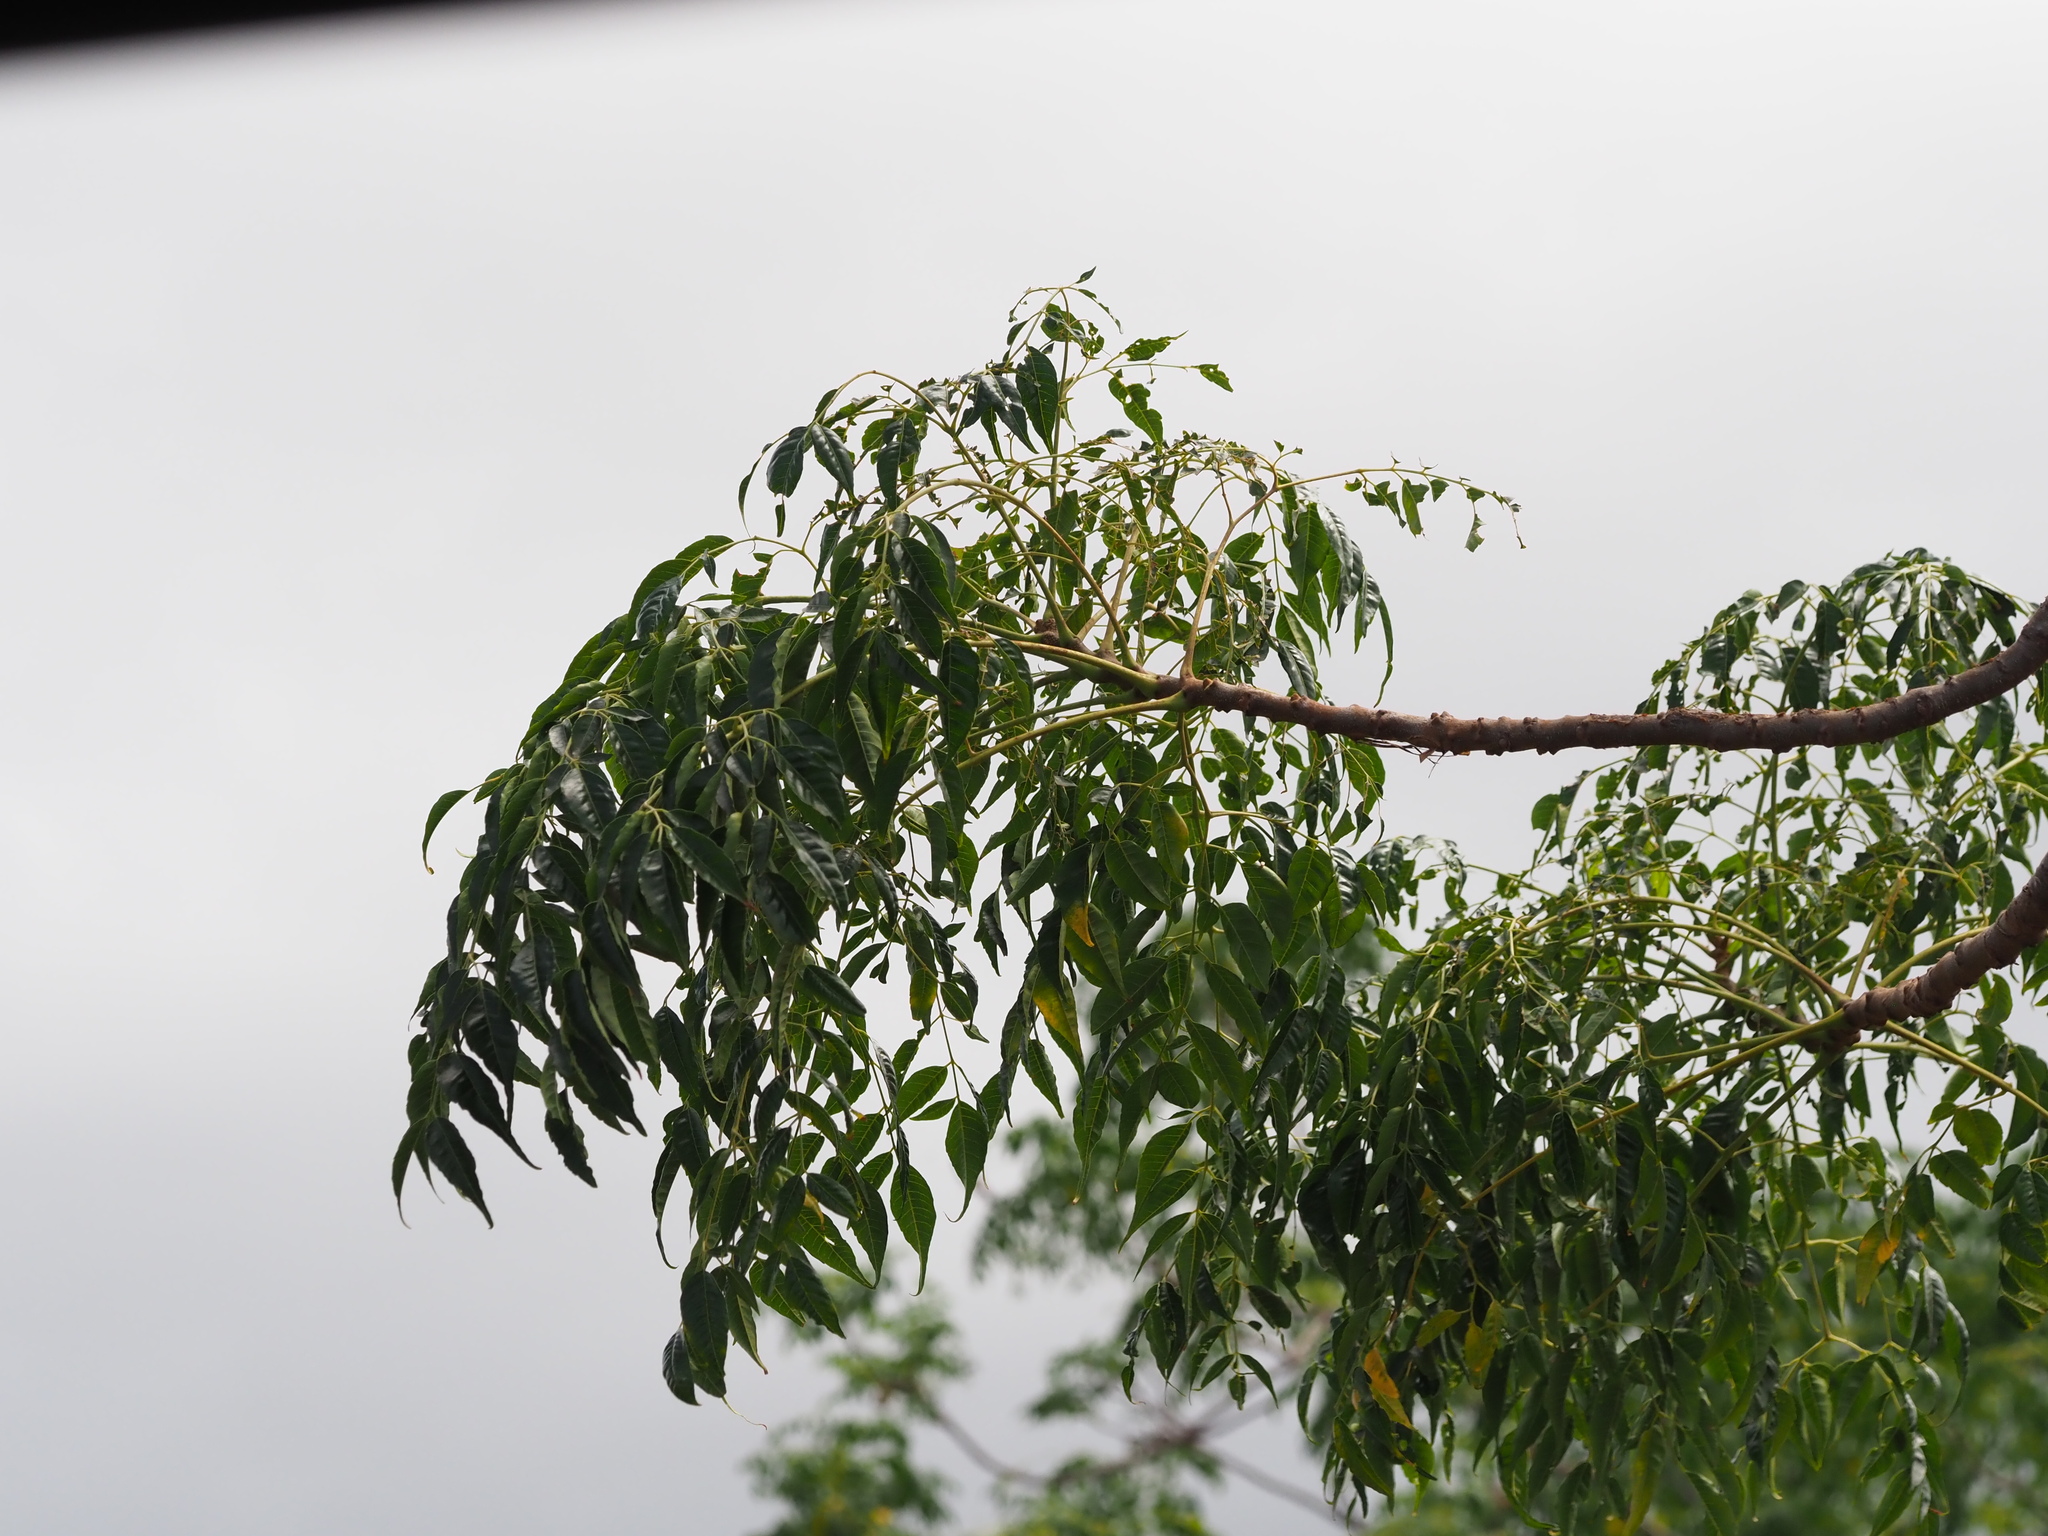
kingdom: Plantae
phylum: Tracheophyta
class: Magnoliopsida
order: Sapindales
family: Meliaceae
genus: Melia
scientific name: Melia azedarach
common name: Chinaberrytree
